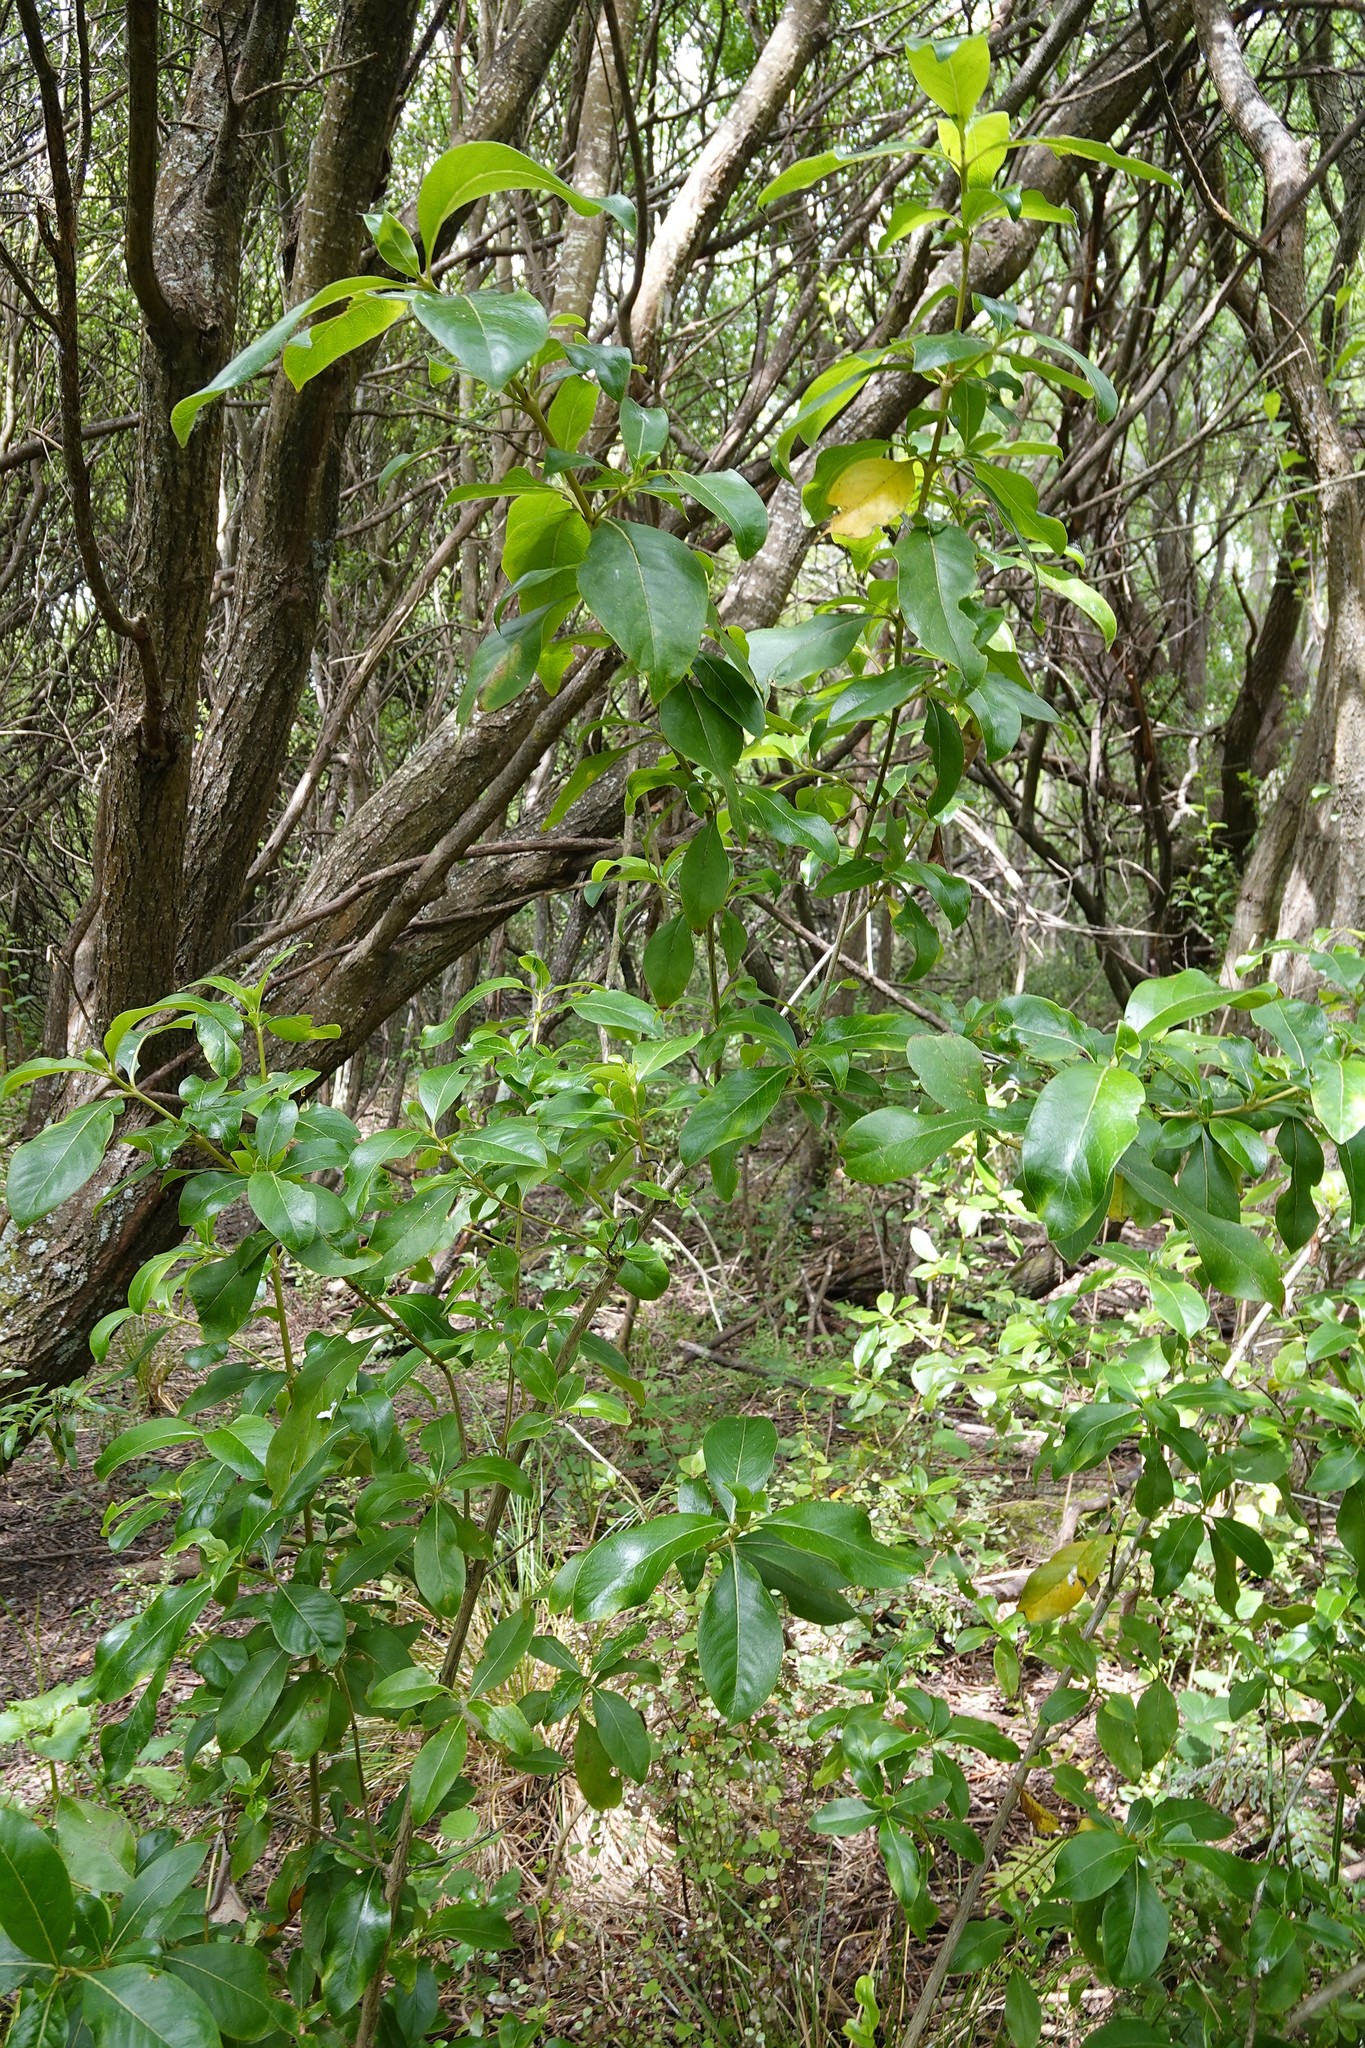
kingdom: Plantae
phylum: Tracheophyta
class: Magnoliopsida
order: Gentianales
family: Rubiaceae
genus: Coprosma
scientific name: Coprosma robusta
